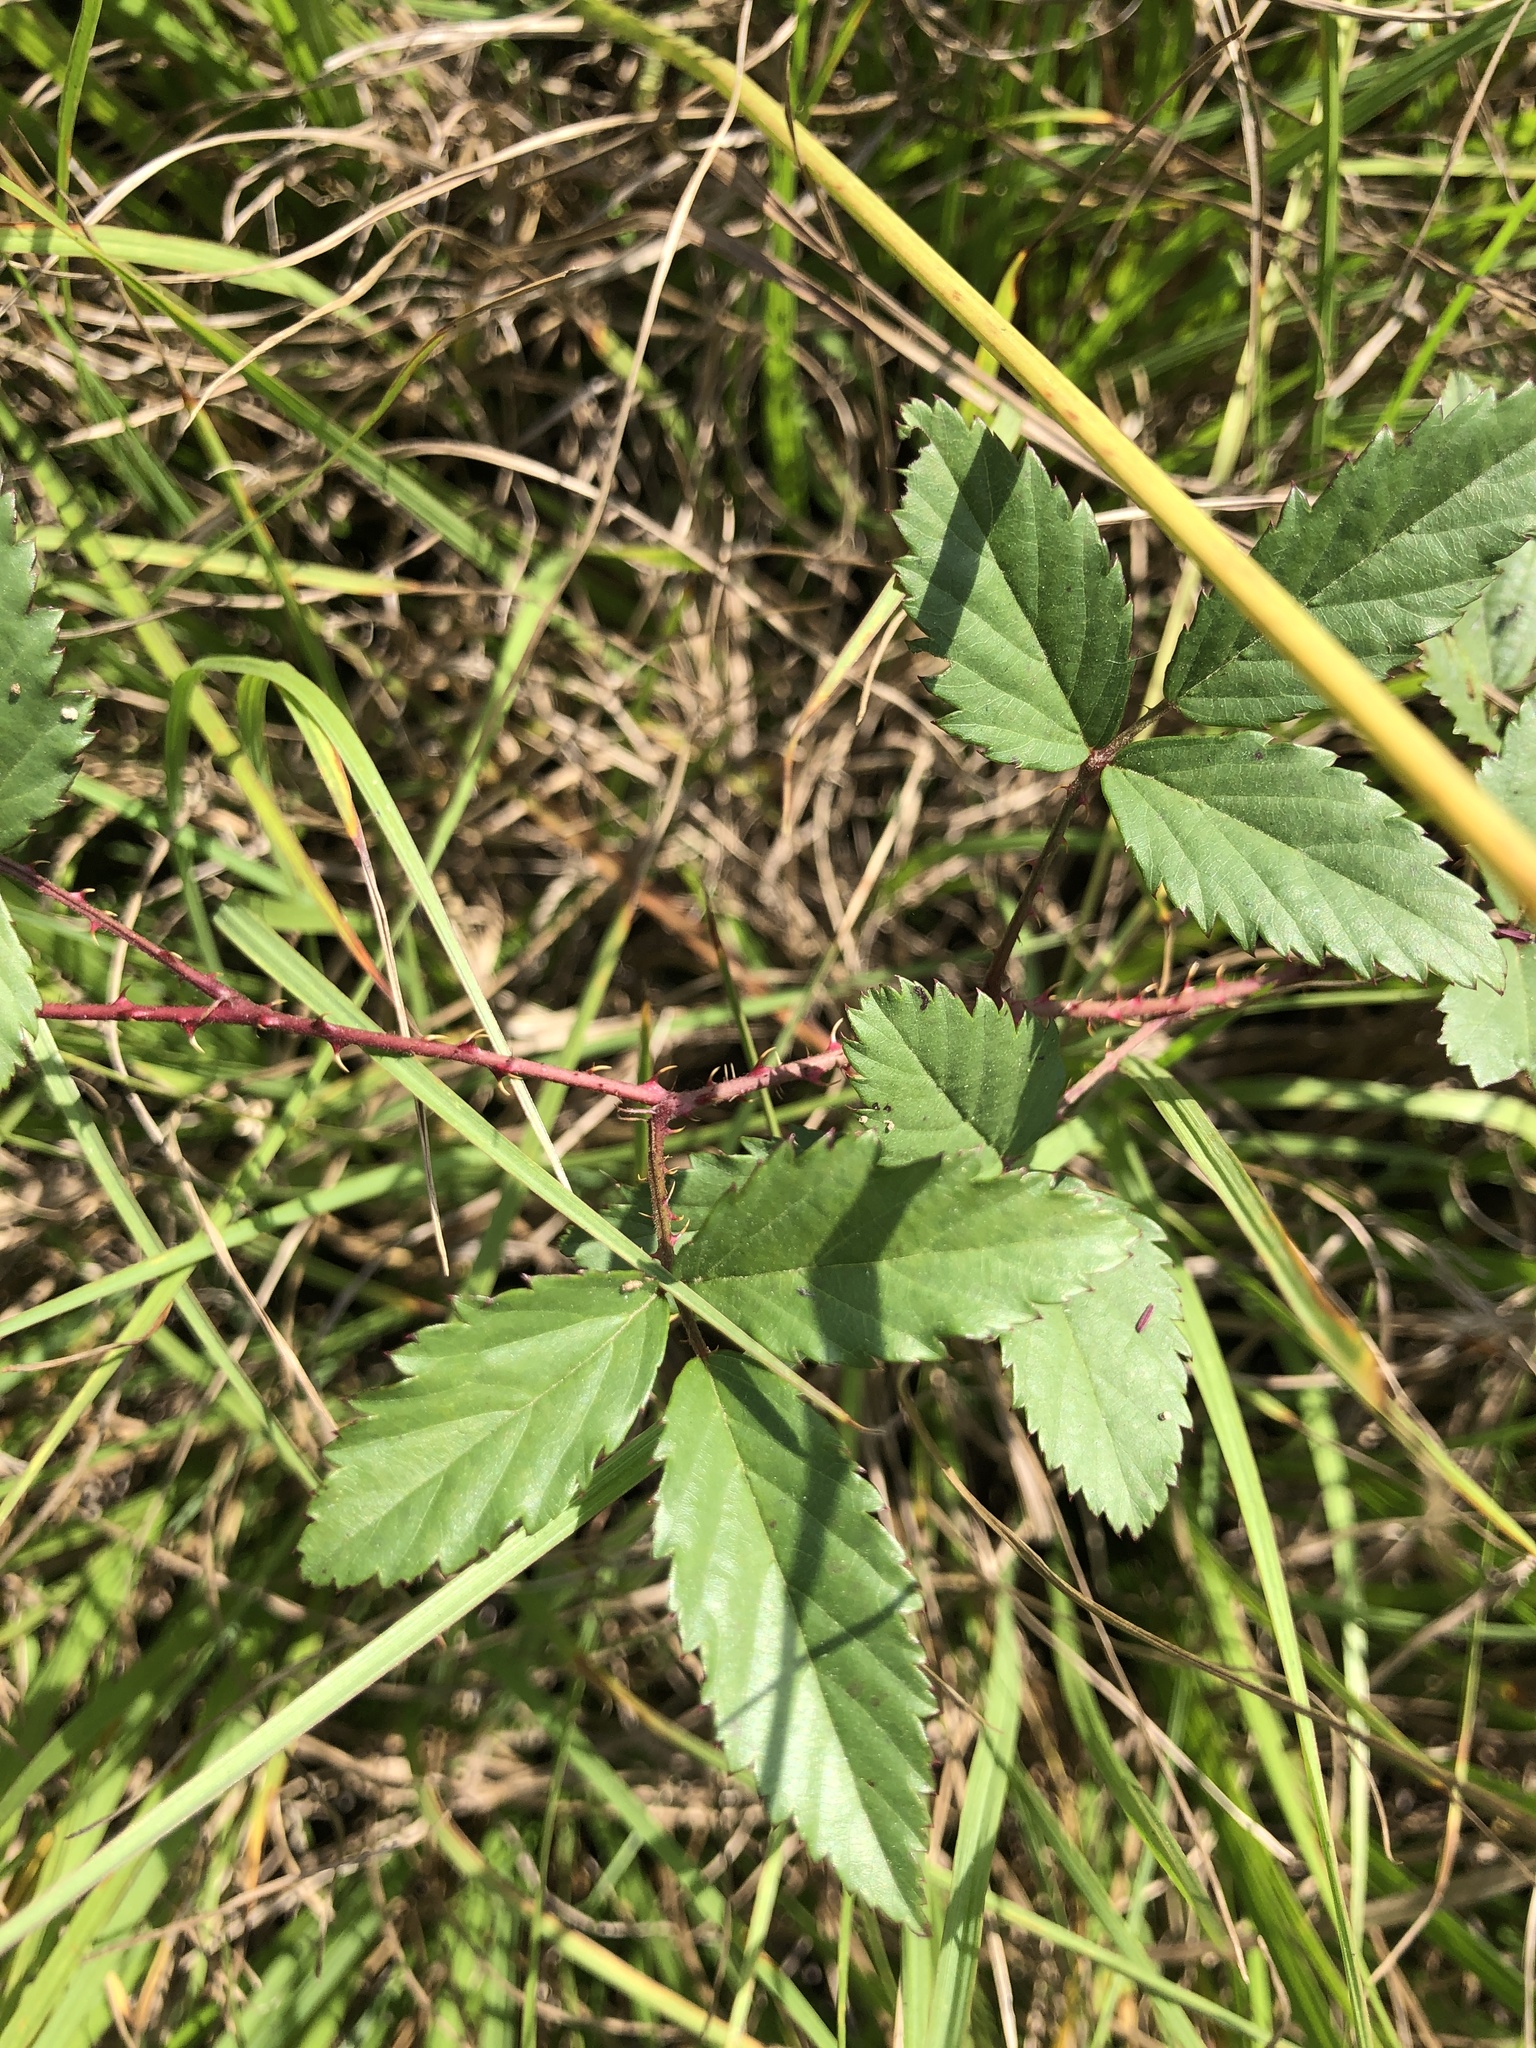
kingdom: Plantae
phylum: Tracheophyta
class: Magnoliopsida
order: Rosales
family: Rosaceae
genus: Rubus
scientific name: Rubus trivialis
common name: Southern dewberry
